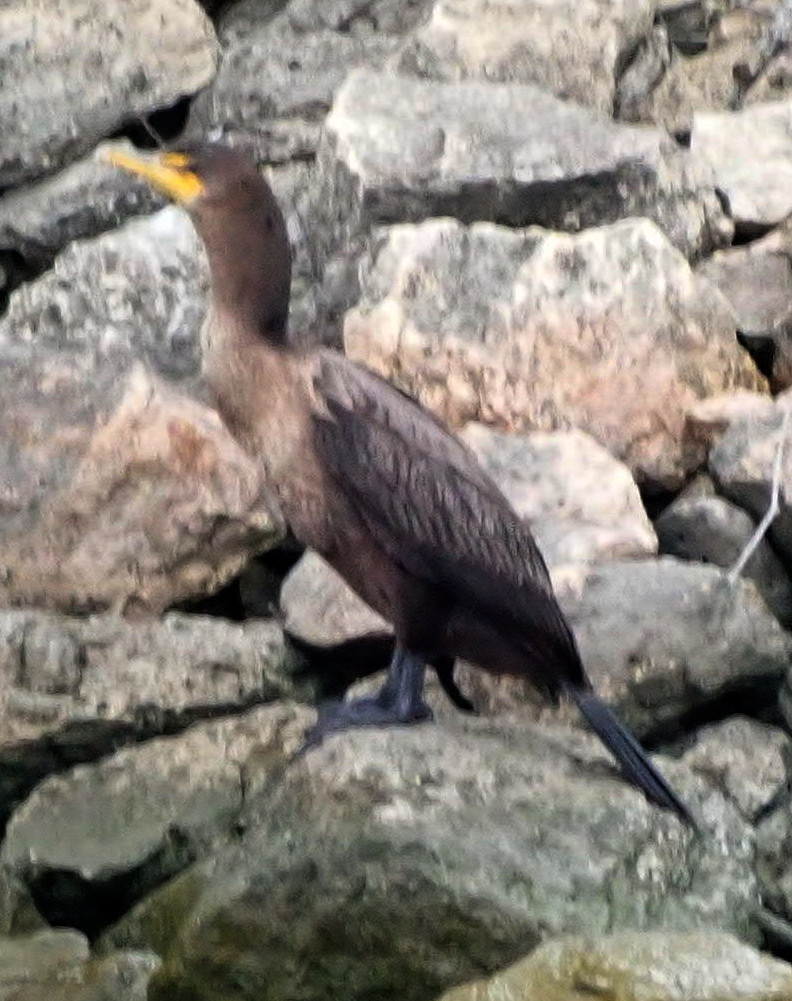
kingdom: Animalia
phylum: Chordata
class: Aves
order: Suliformes
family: Phalacrocoracidae
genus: Phalacrocorax
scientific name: Phalacrocorax auritus
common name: Double-crested cormorant
